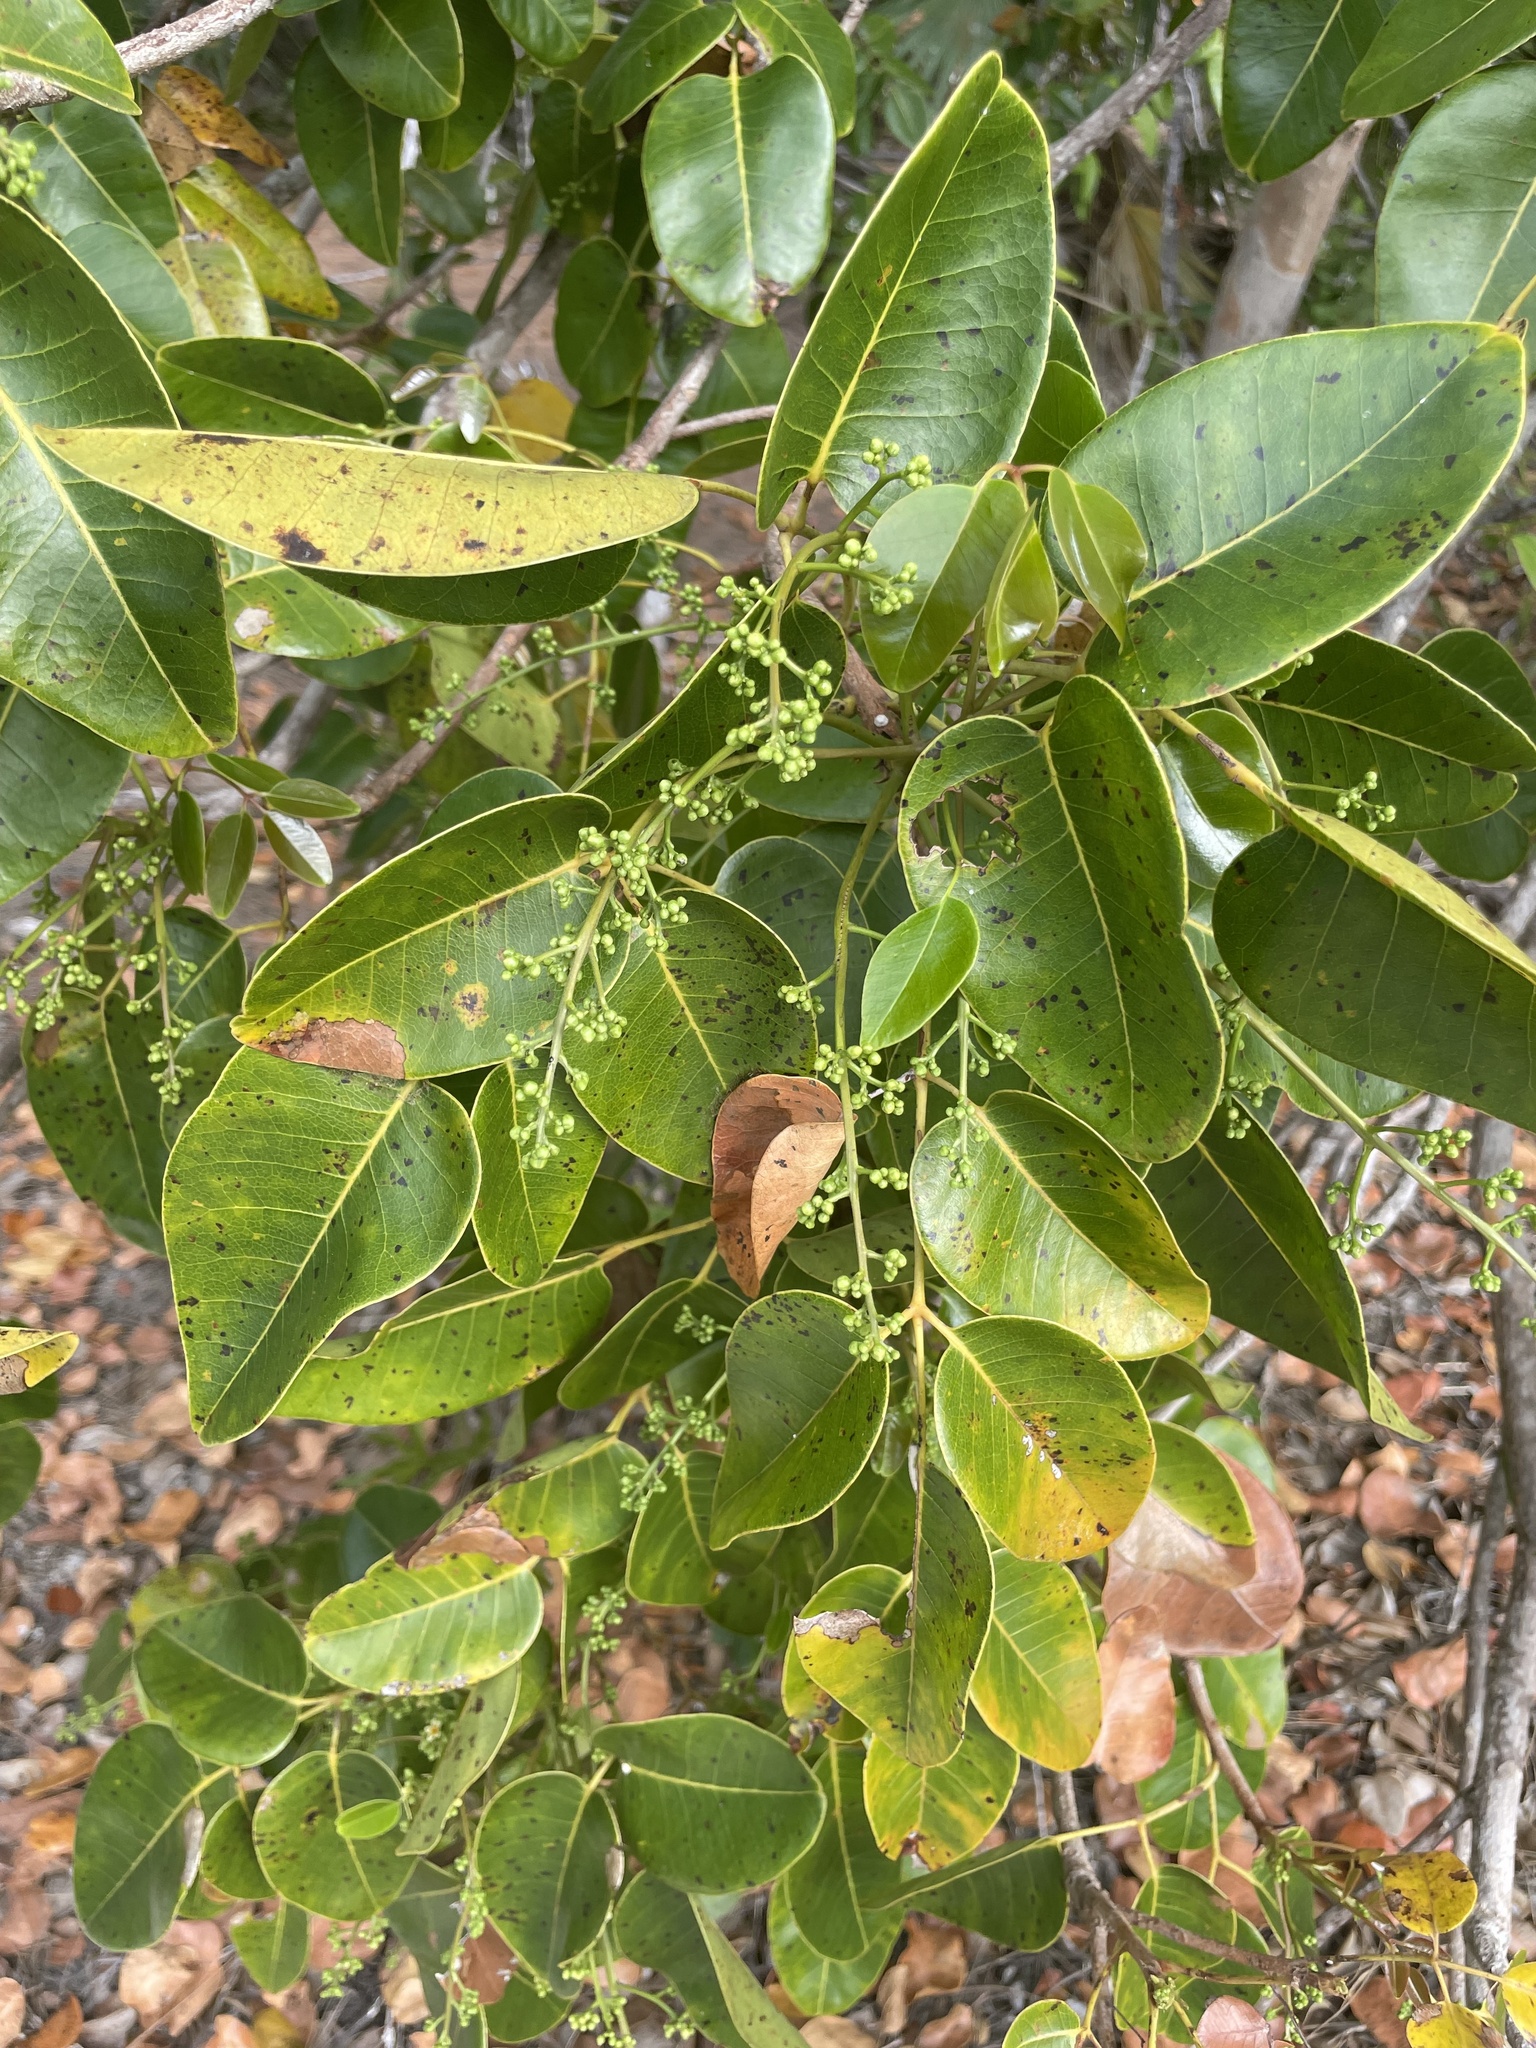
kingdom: Plantae
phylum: Tracheophyta
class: Magnoliopsida
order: Sapindales
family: Anacardiaceae
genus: Metopium
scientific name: Metopium toxiferum
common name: Florida poisontree
